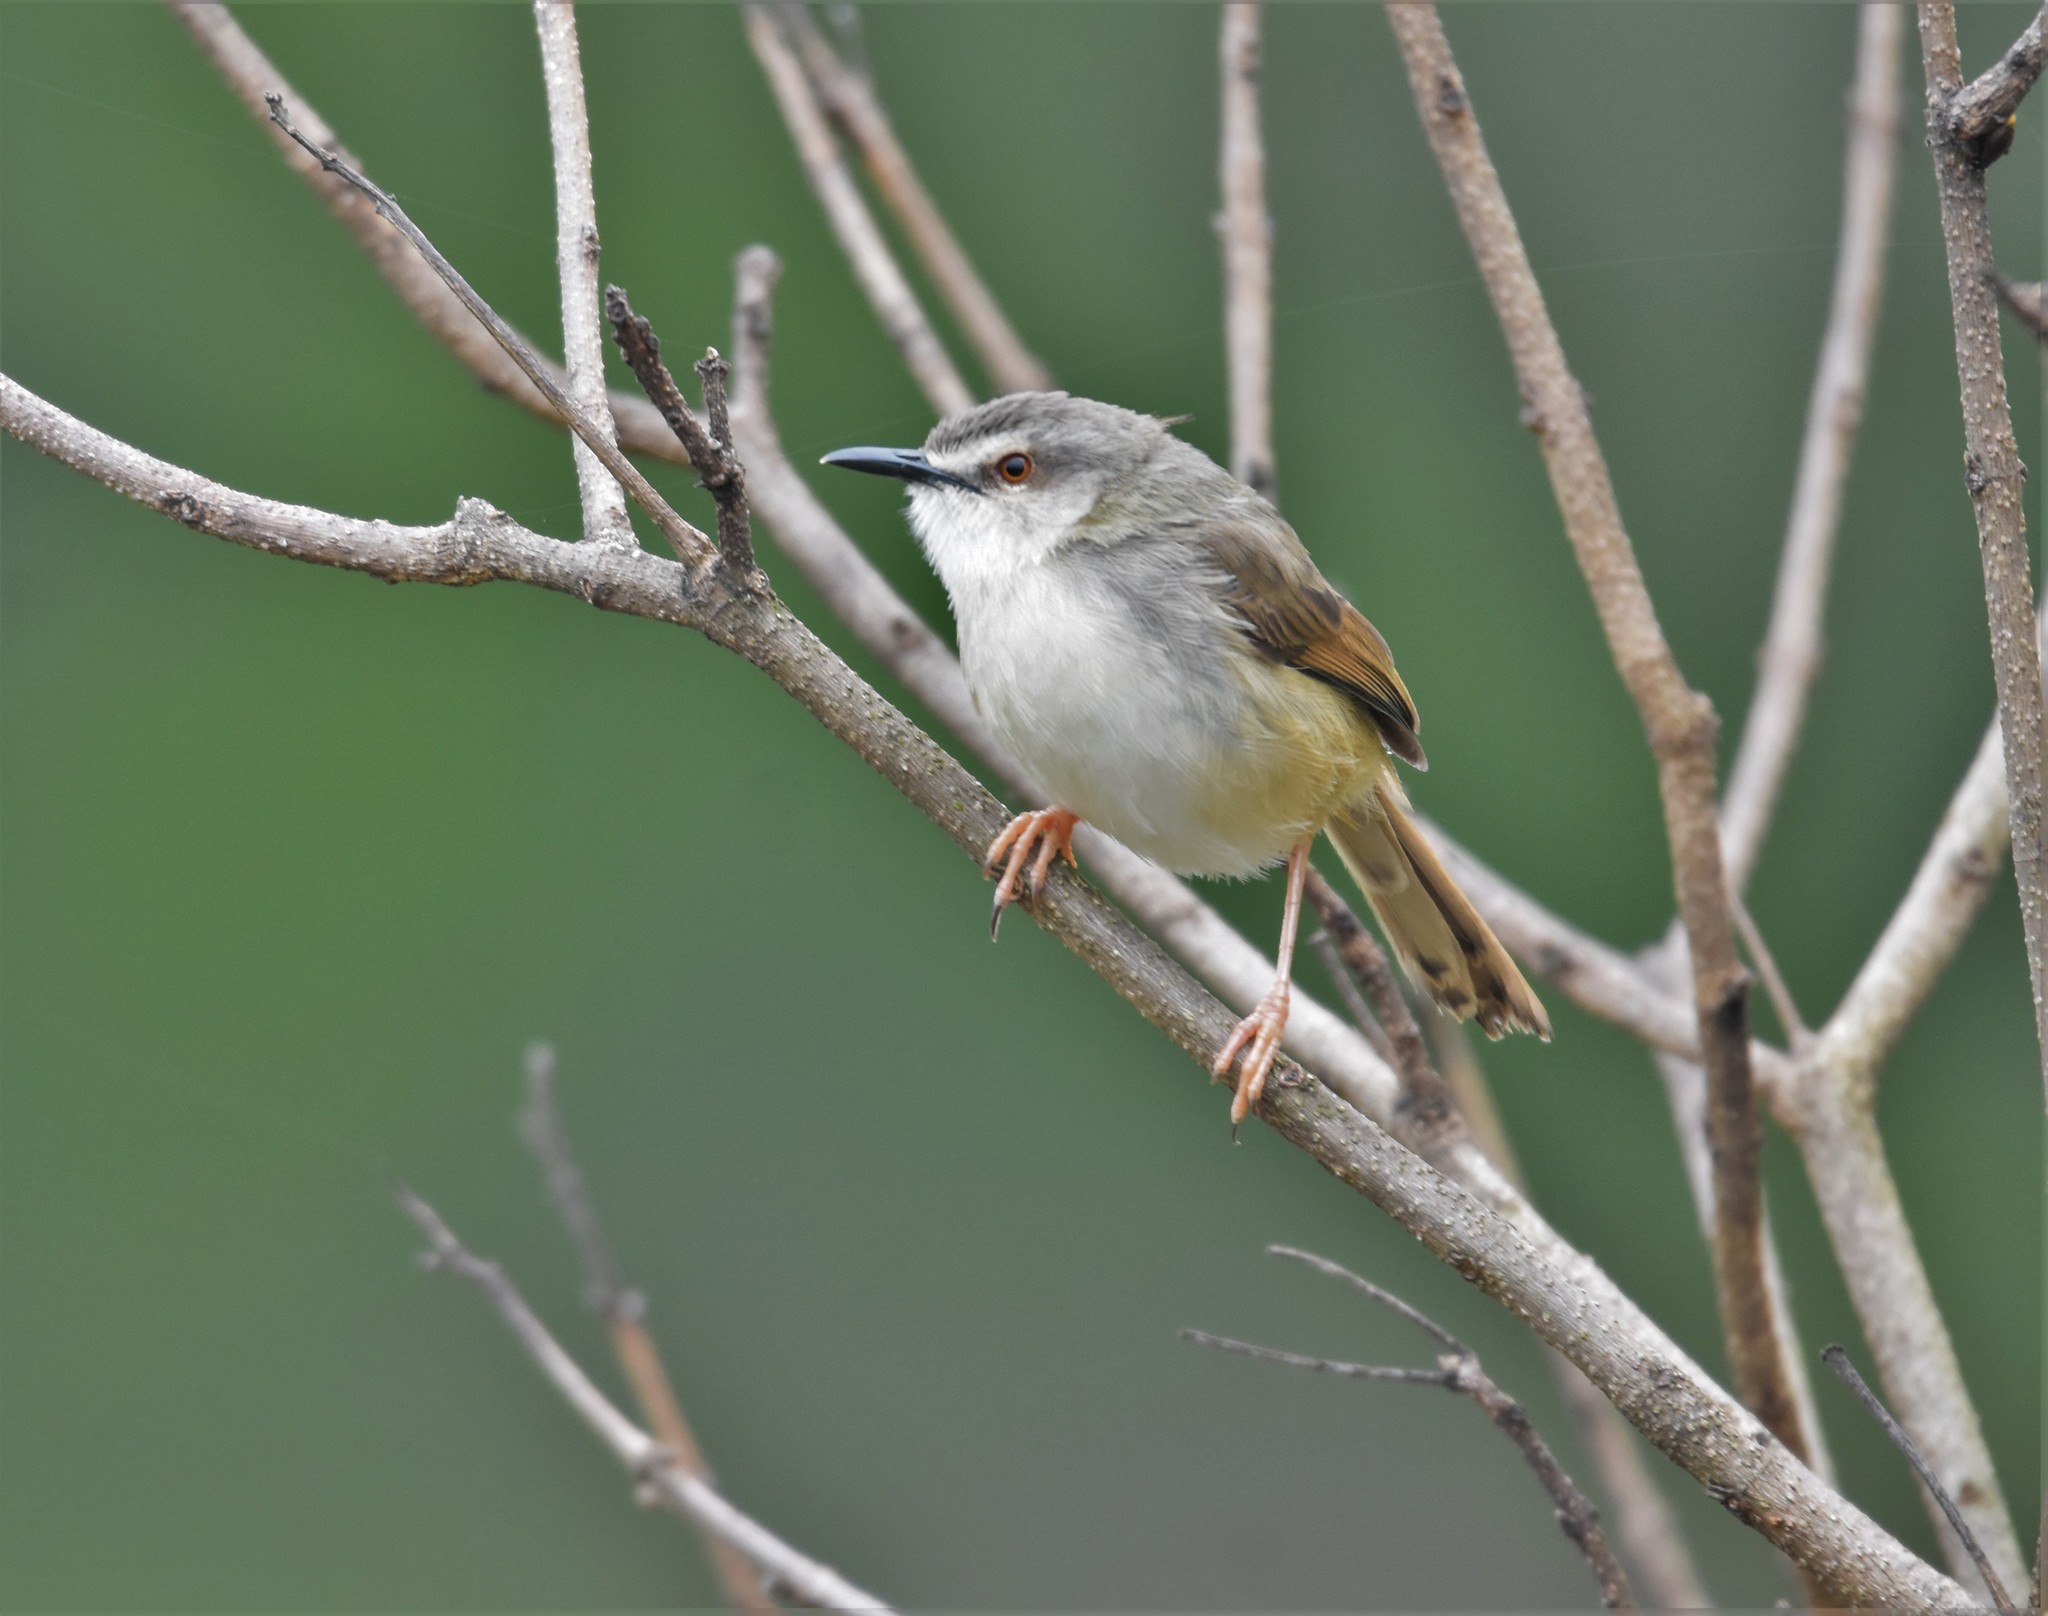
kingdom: Animalia
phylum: Chordata
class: Aves
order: Passeriformes
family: Cisticolidae
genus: Prinia
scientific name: Prinia subflava
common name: Tawny-flanked prinia
